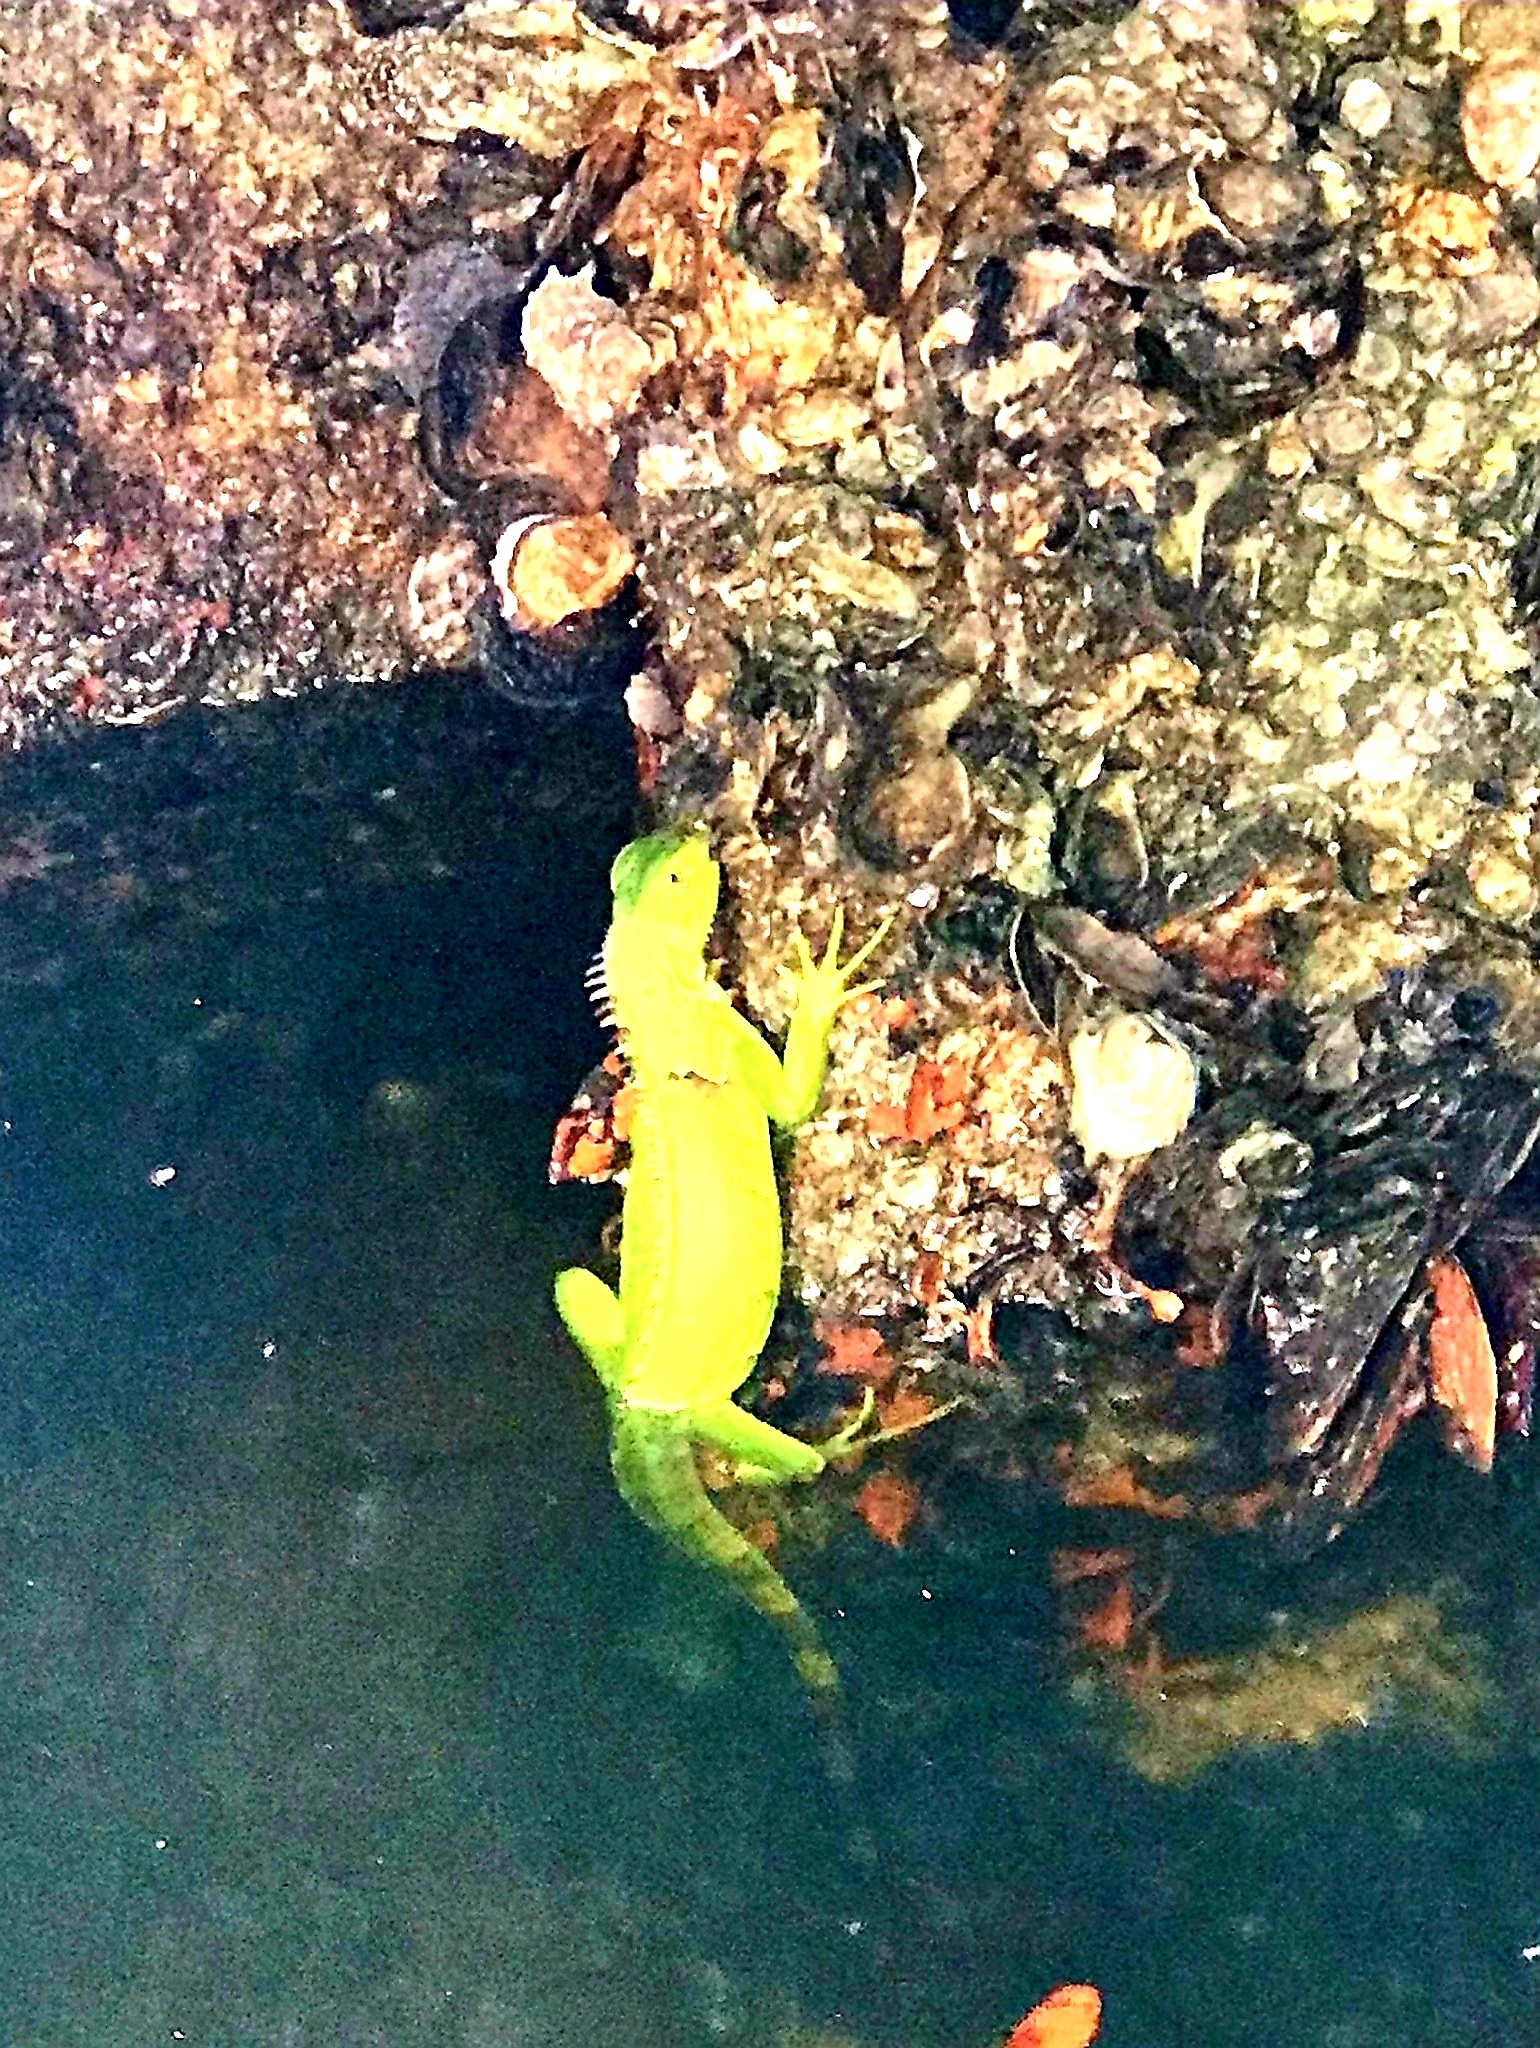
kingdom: Animalia
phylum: Chordata
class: Squamata
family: Iguanidae
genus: Iguana
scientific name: Iguana iguana
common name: Green iguana
